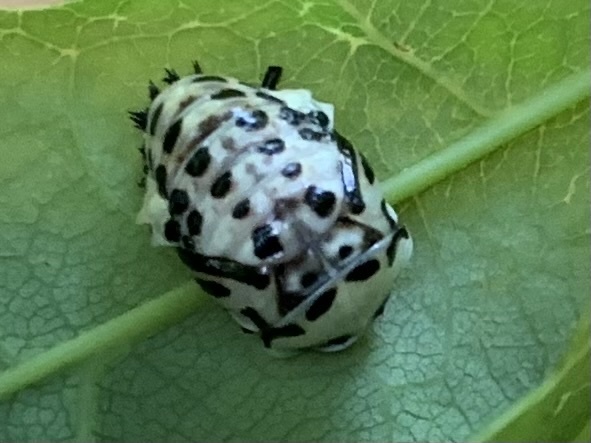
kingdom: Animalia
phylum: Arthropoda
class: Insecta
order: Coleoptera
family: Coccinellidae
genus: Anatis
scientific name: Anatis ocellata
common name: Eyed ladybird
